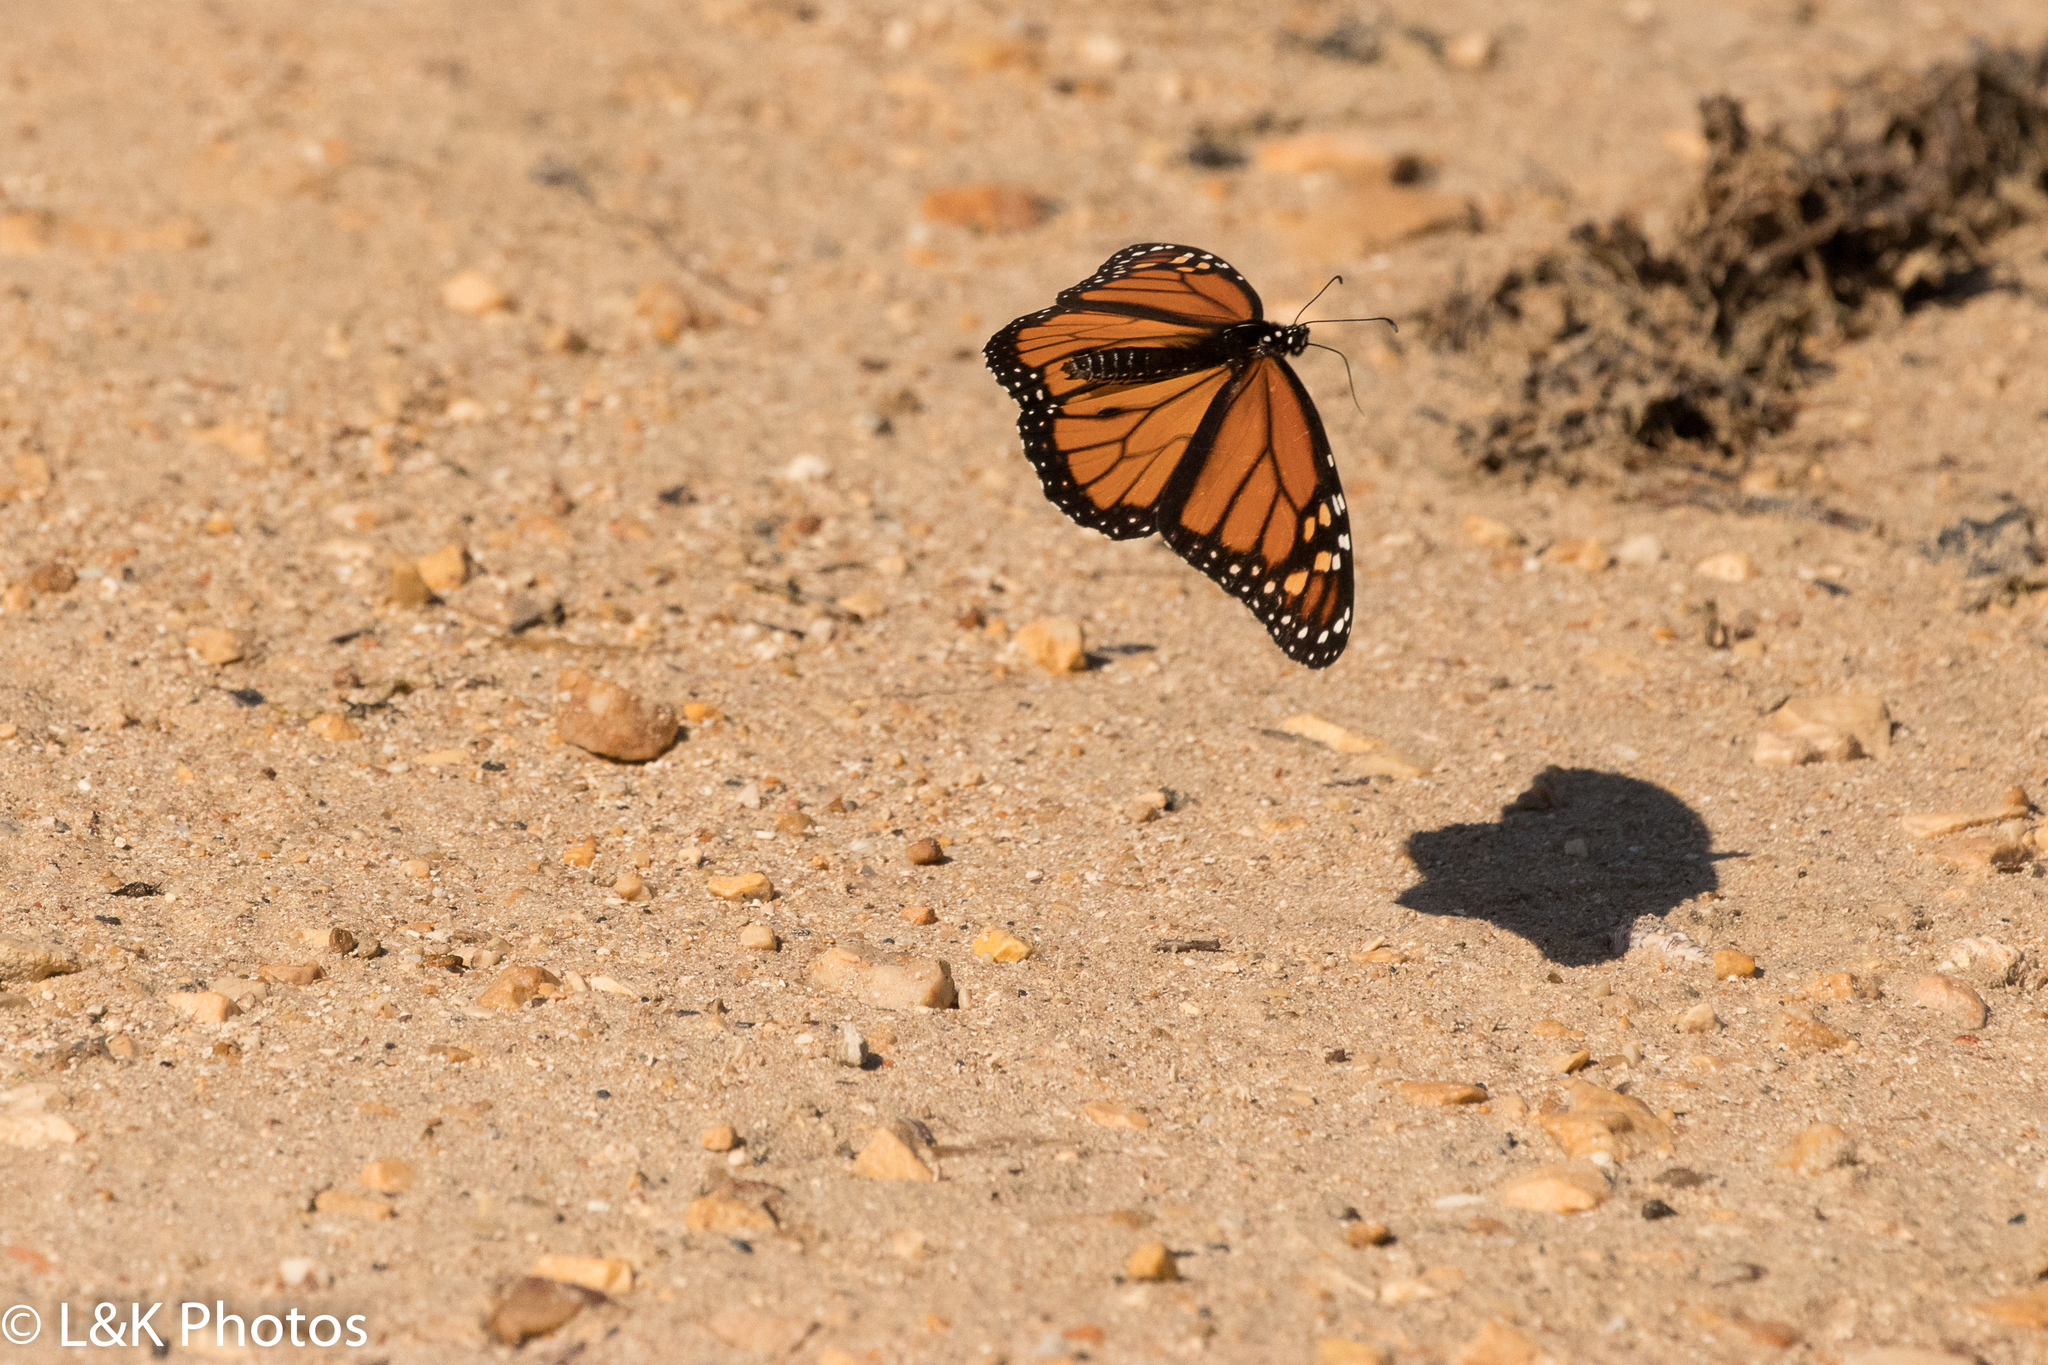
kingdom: Animalia
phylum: Arthropoda
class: Insecta
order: Lepidoptera
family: Nymphalidae
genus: Danaus
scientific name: Danaus plexippus
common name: Monarch
